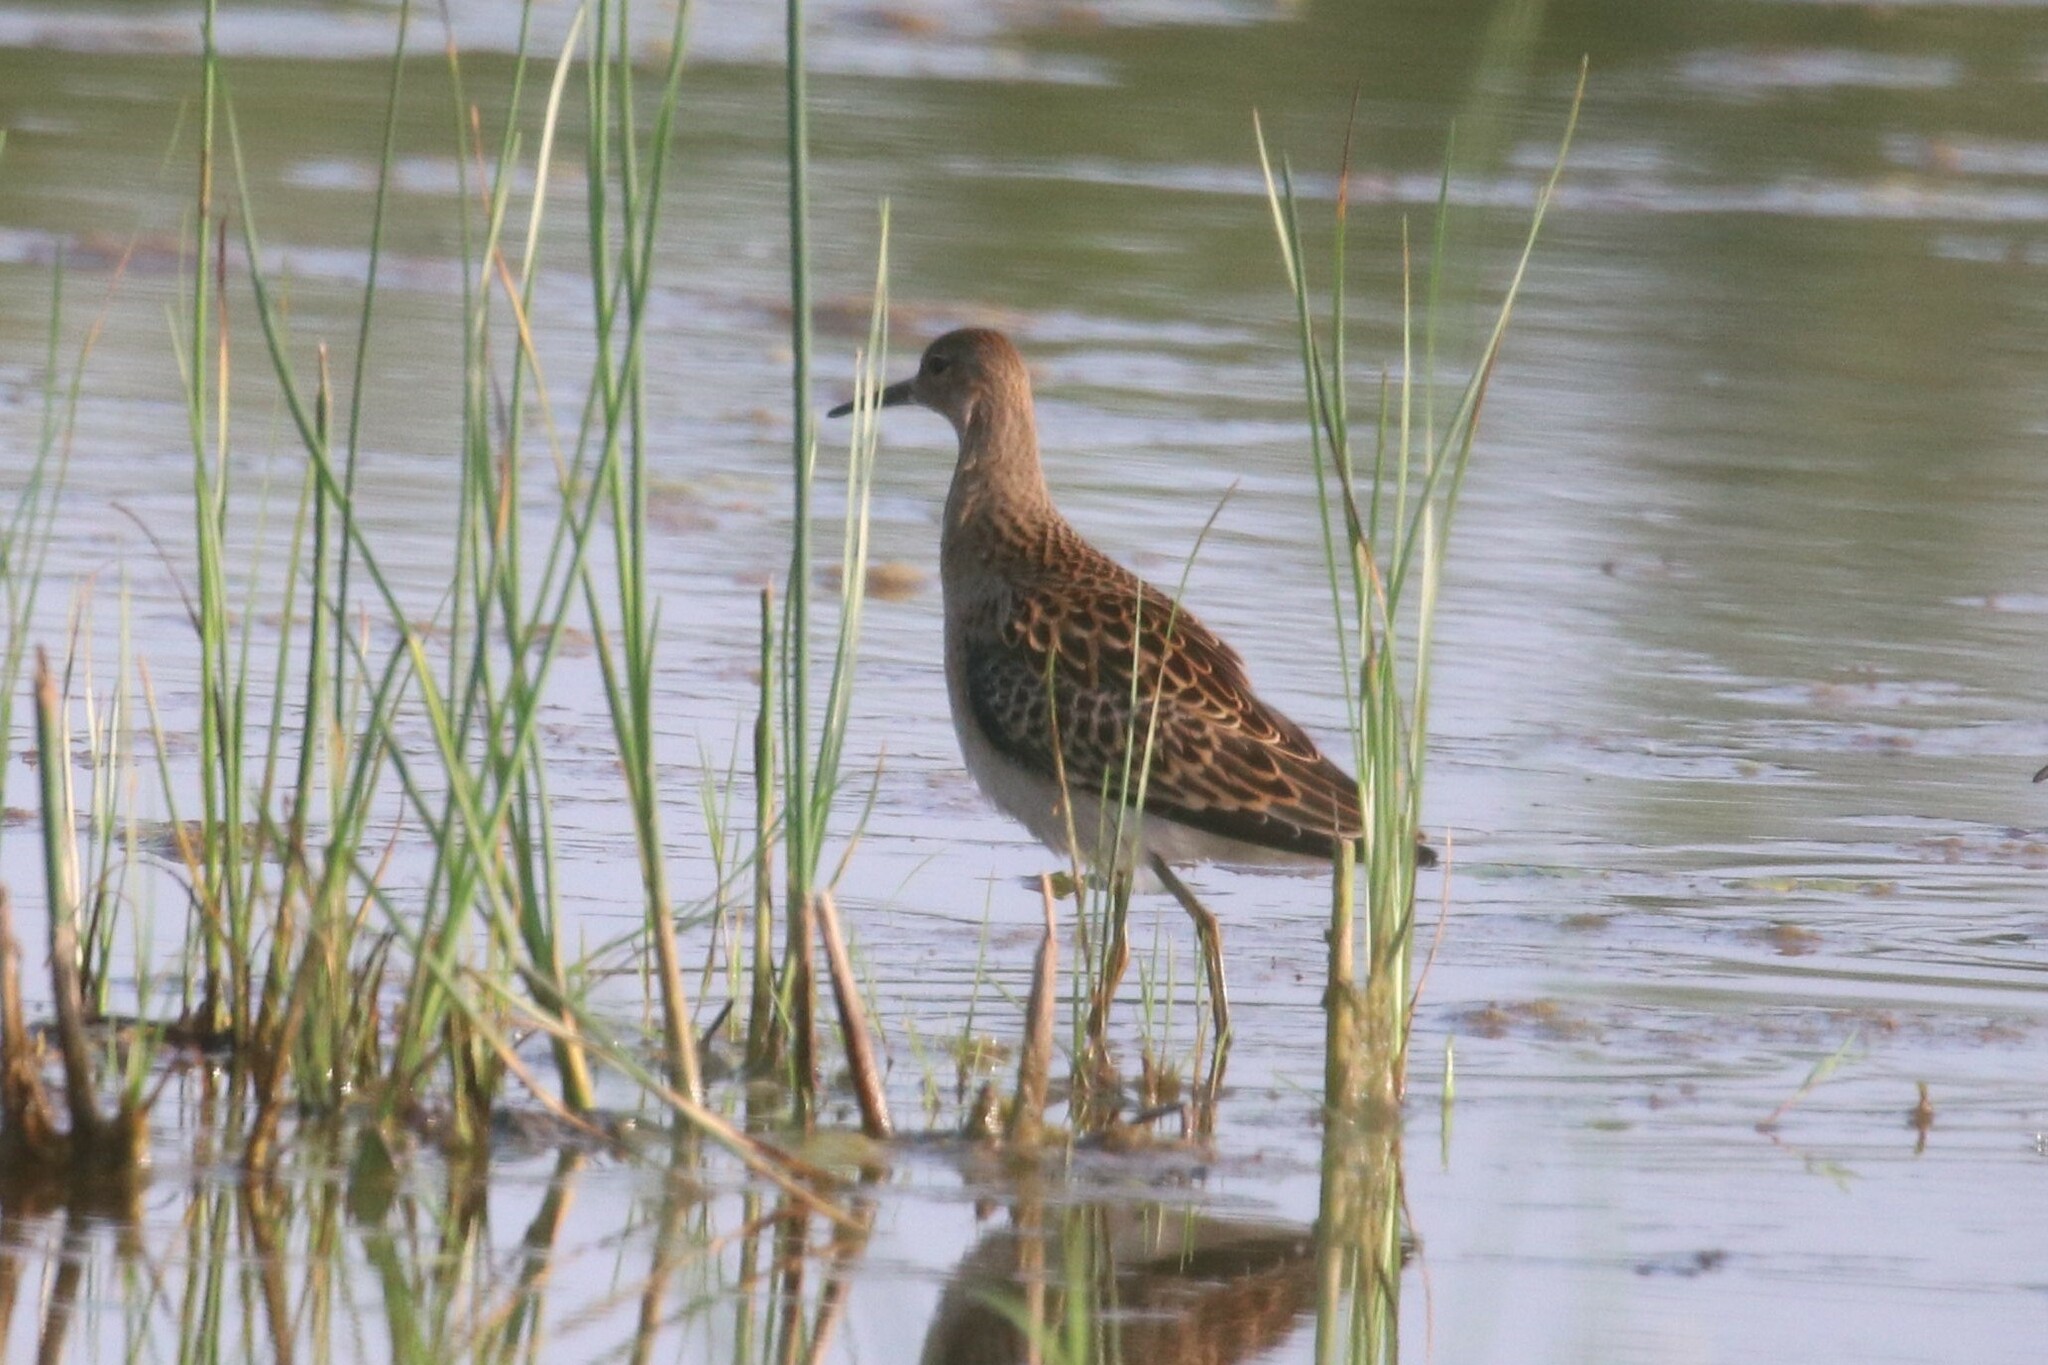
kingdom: Animalia
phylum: Chordata
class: Aves
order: Charadriiformes
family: Scolopacidae
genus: Calidris
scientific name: Calidris pugnax
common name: Ruff
